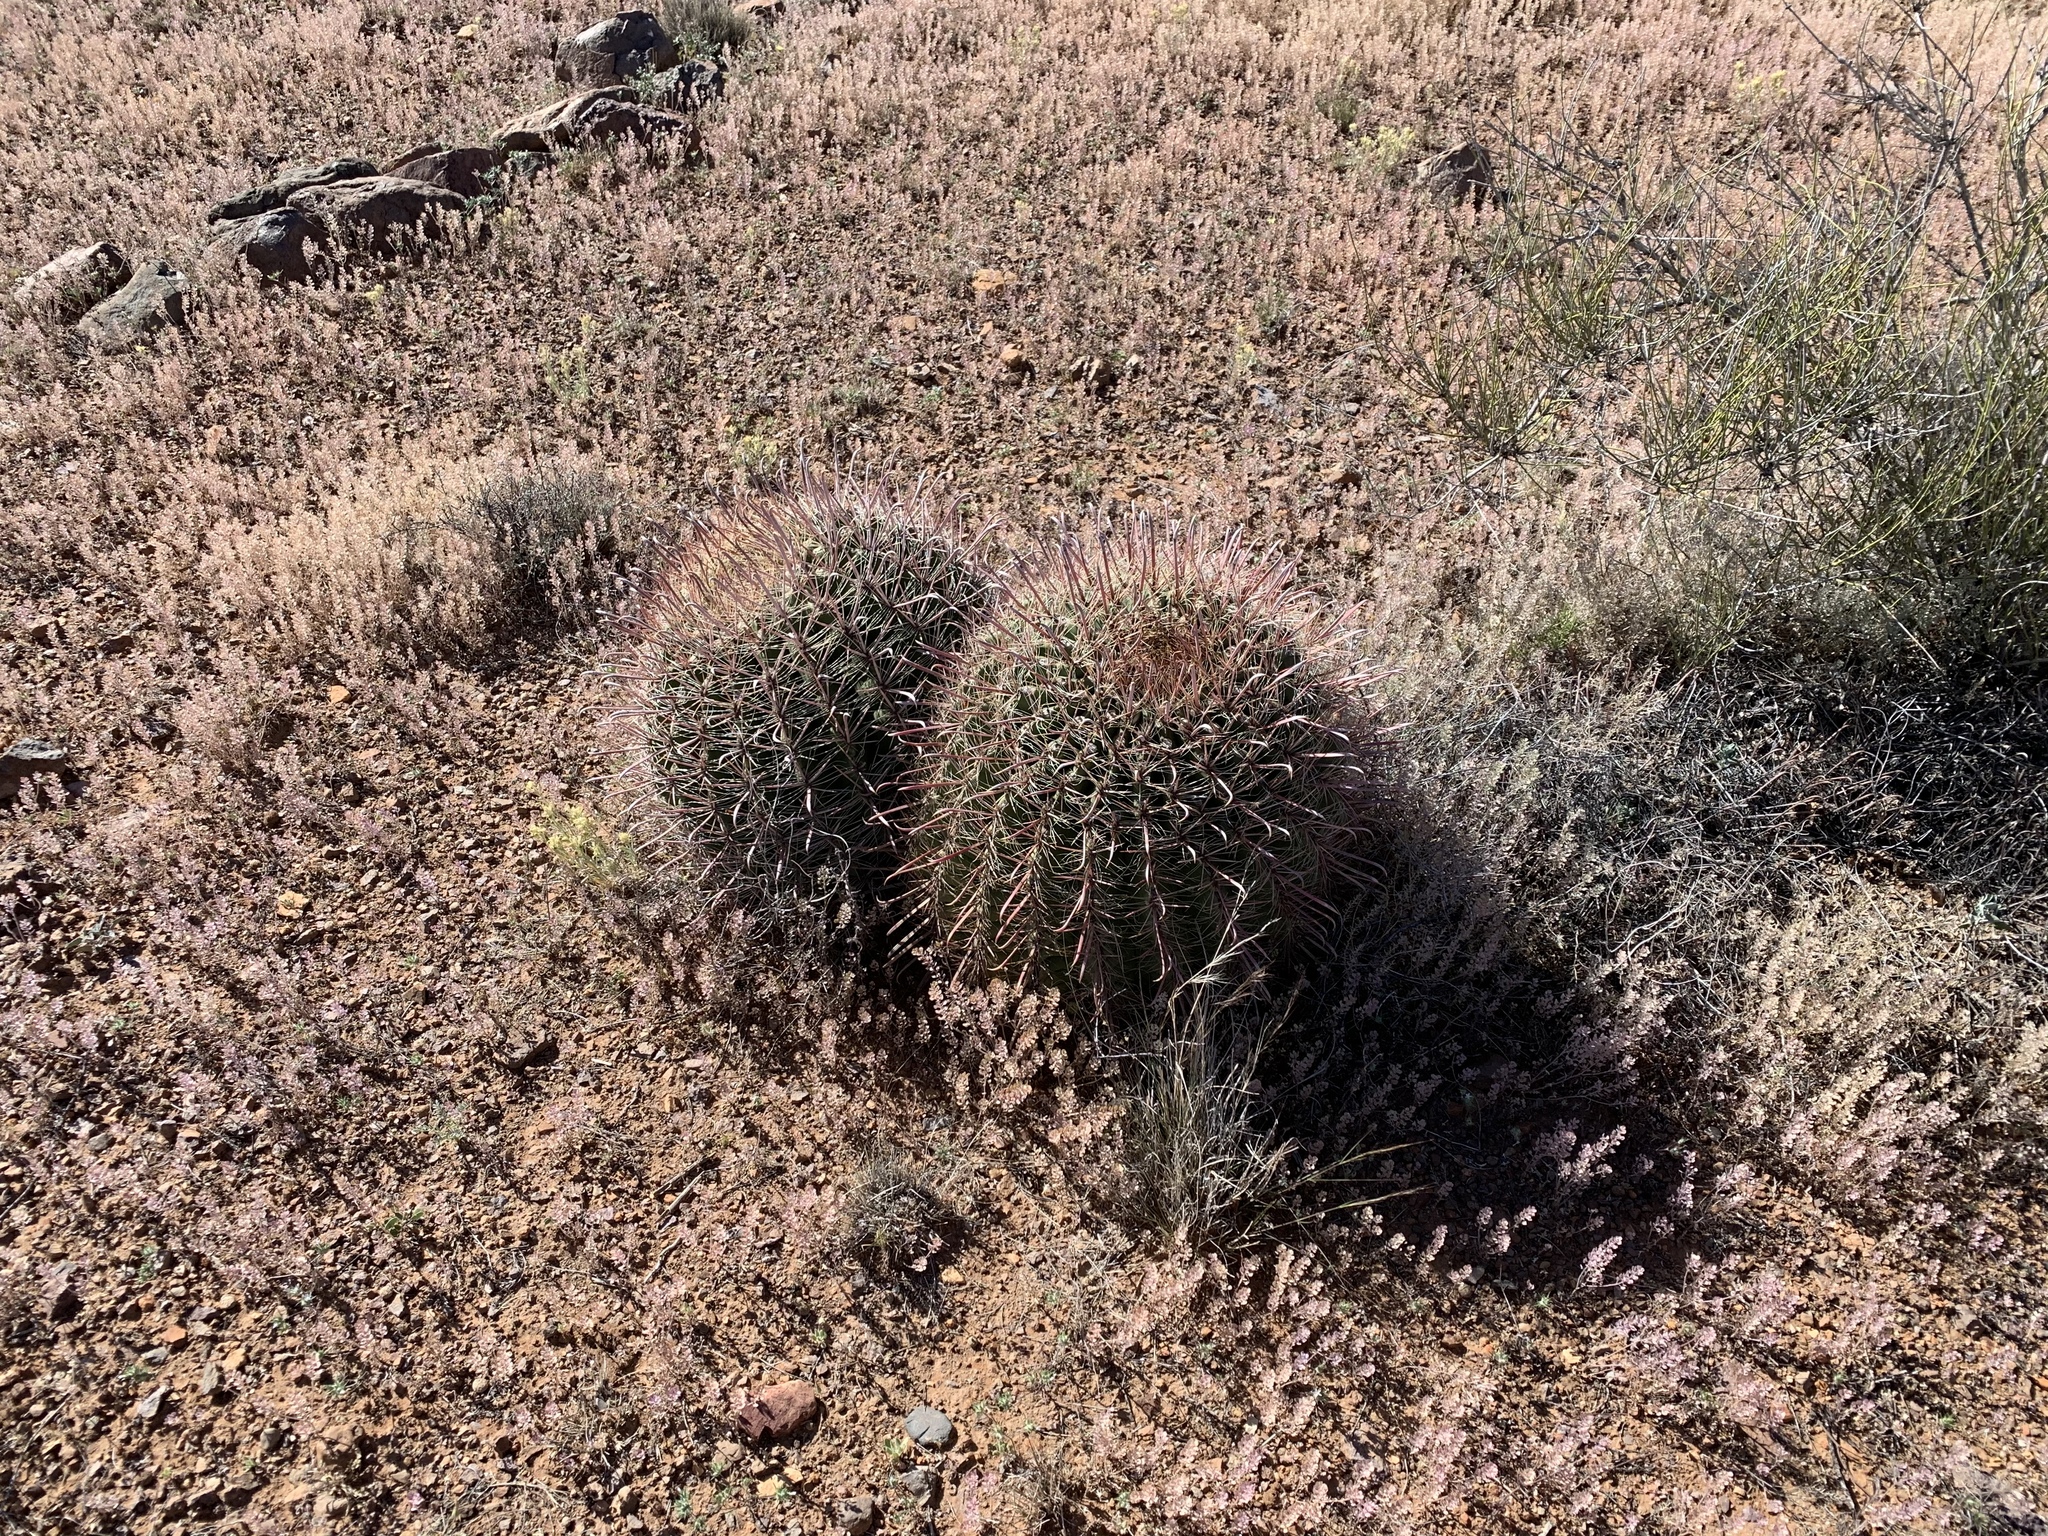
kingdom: Plantae
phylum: Tracheophyta
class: Magnoliopsida
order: Caryophyllales
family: Cactaceae
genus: Ferocactus
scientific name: Ferocactus wislizeni
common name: Candy barrel cactus
